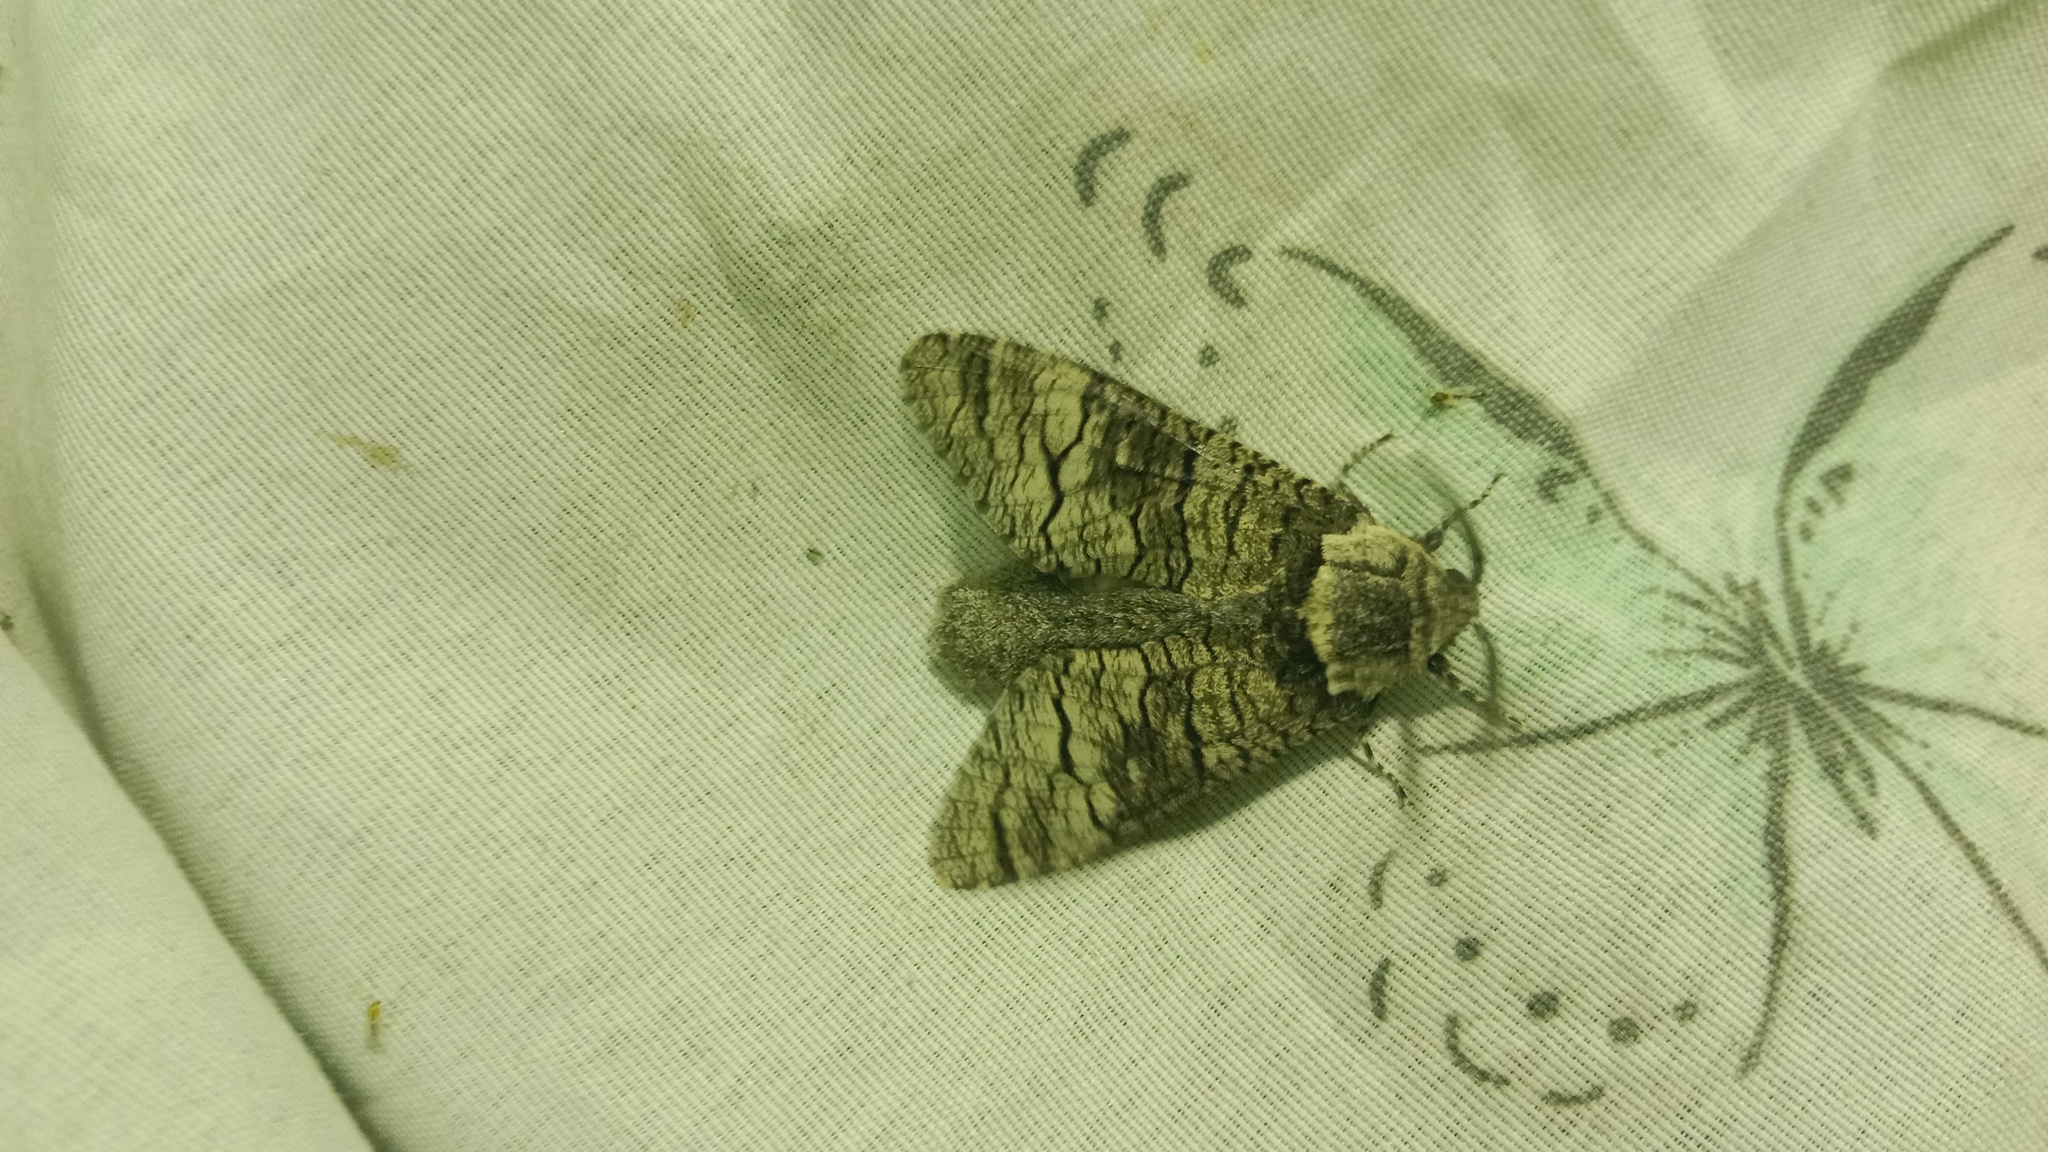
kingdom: Animalia
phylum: Arthropoda
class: Insecta
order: Lepidoptera
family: Cossidae
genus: Acossus
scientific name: Acossus terebra
